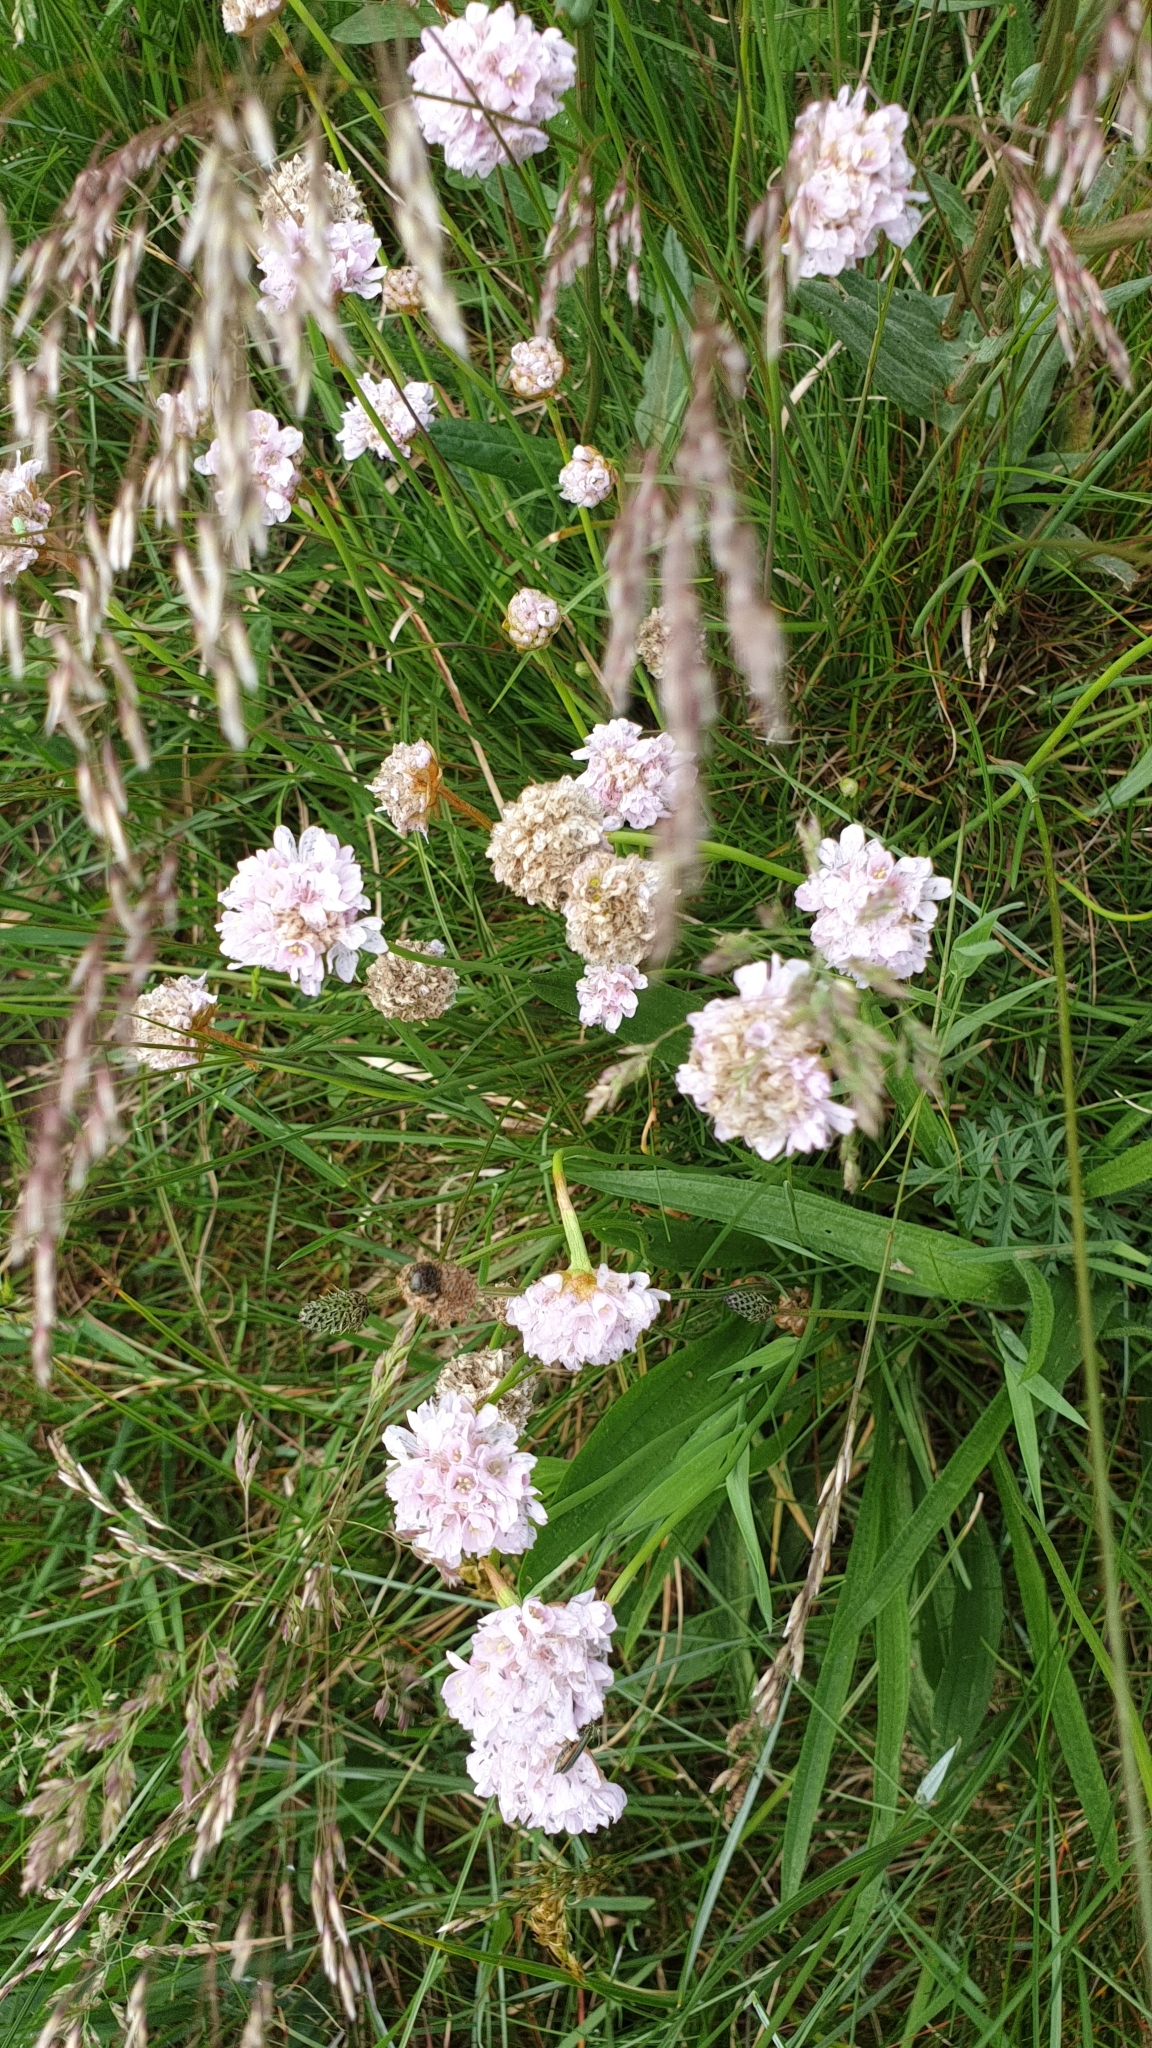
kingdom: Plantae
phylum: Tracheophyta
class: Magnoliopsida
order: Caryophyllales
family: Plumbaginaceae
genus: Armeria
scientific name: Armeria maritima
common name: Thrift
